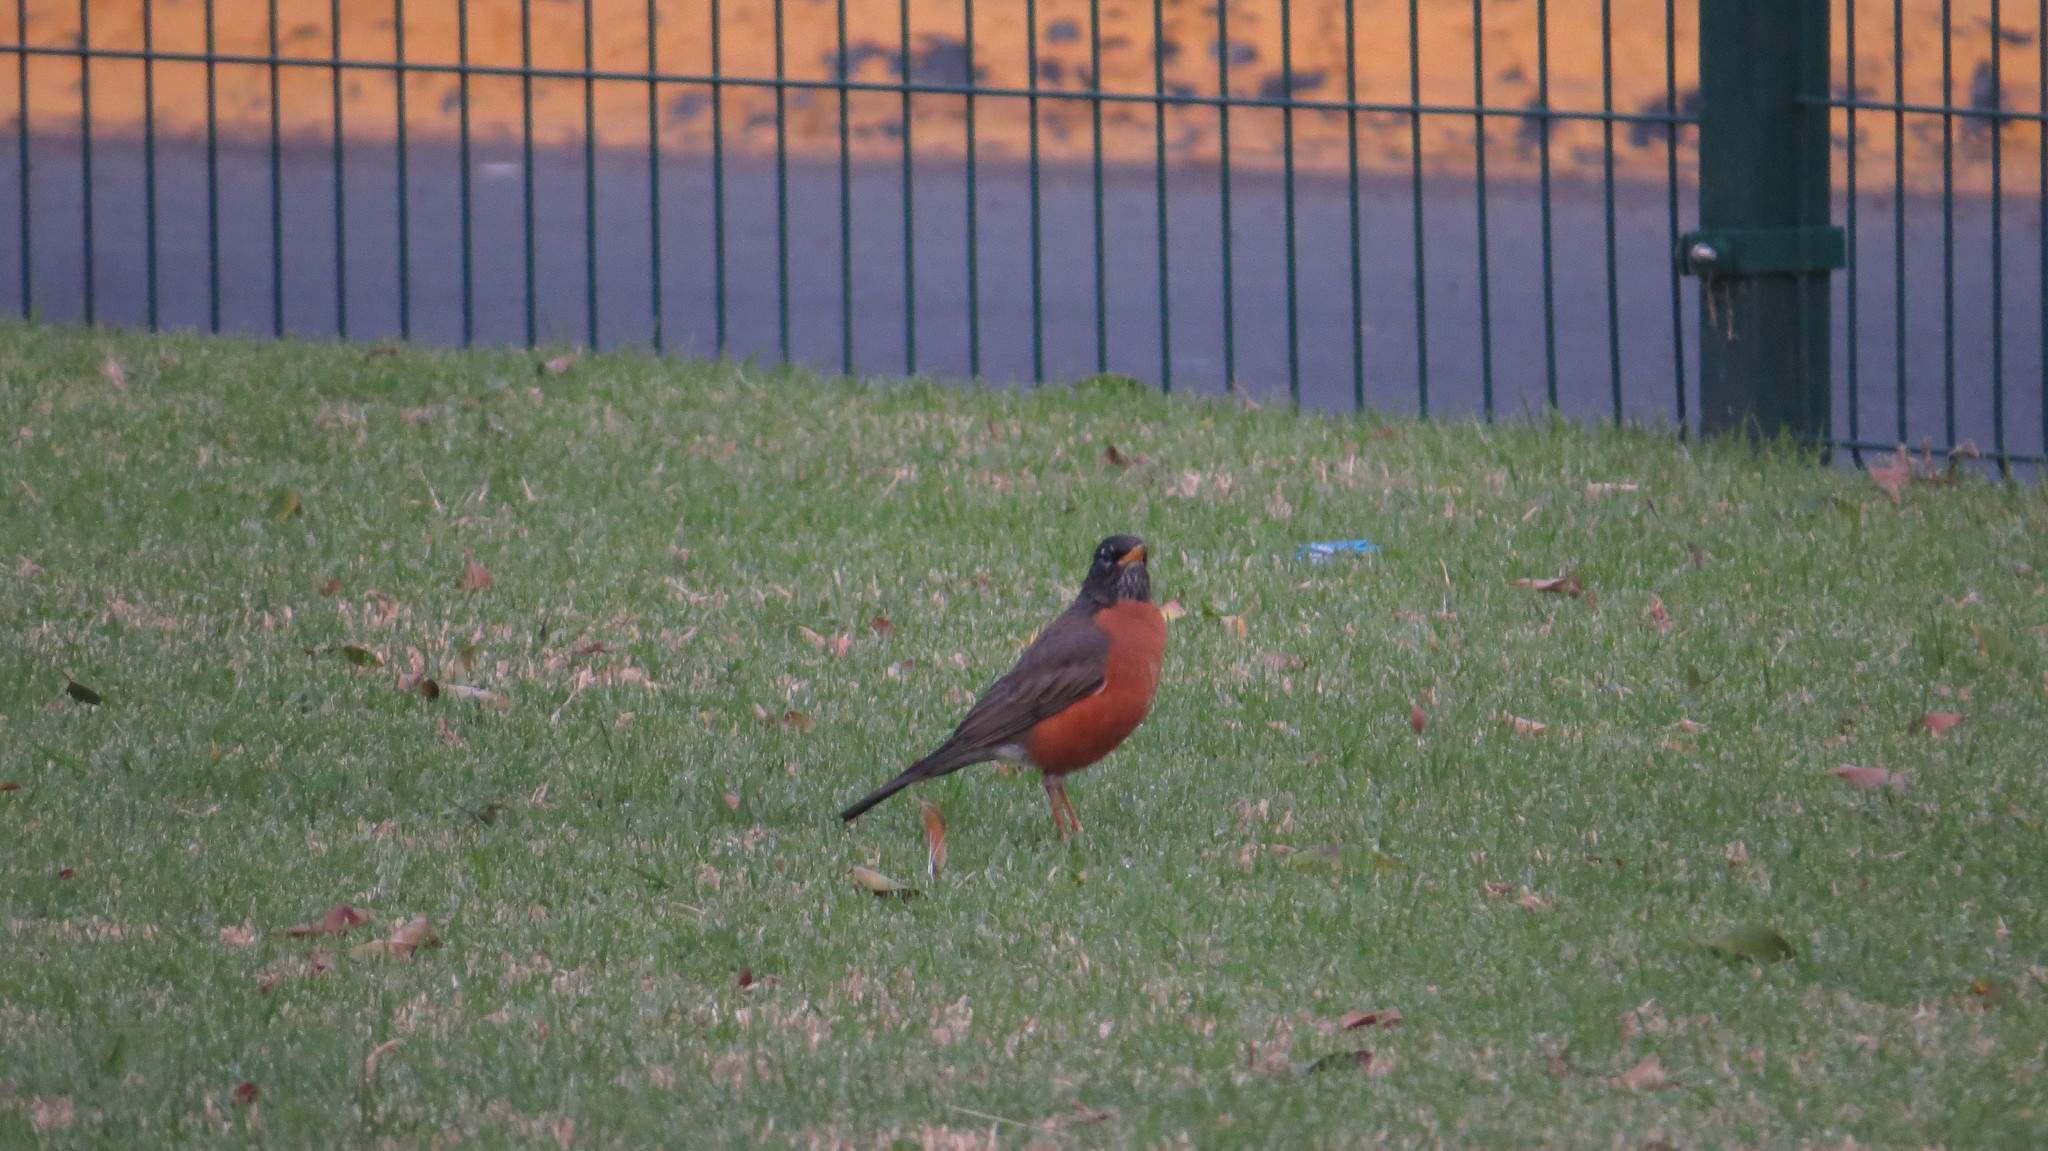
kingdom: Animalia
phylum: Chordata
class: Aves
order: Passeriformes
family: Turdidae
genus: Turdus
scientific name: Turdus migratorius
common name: American robin
